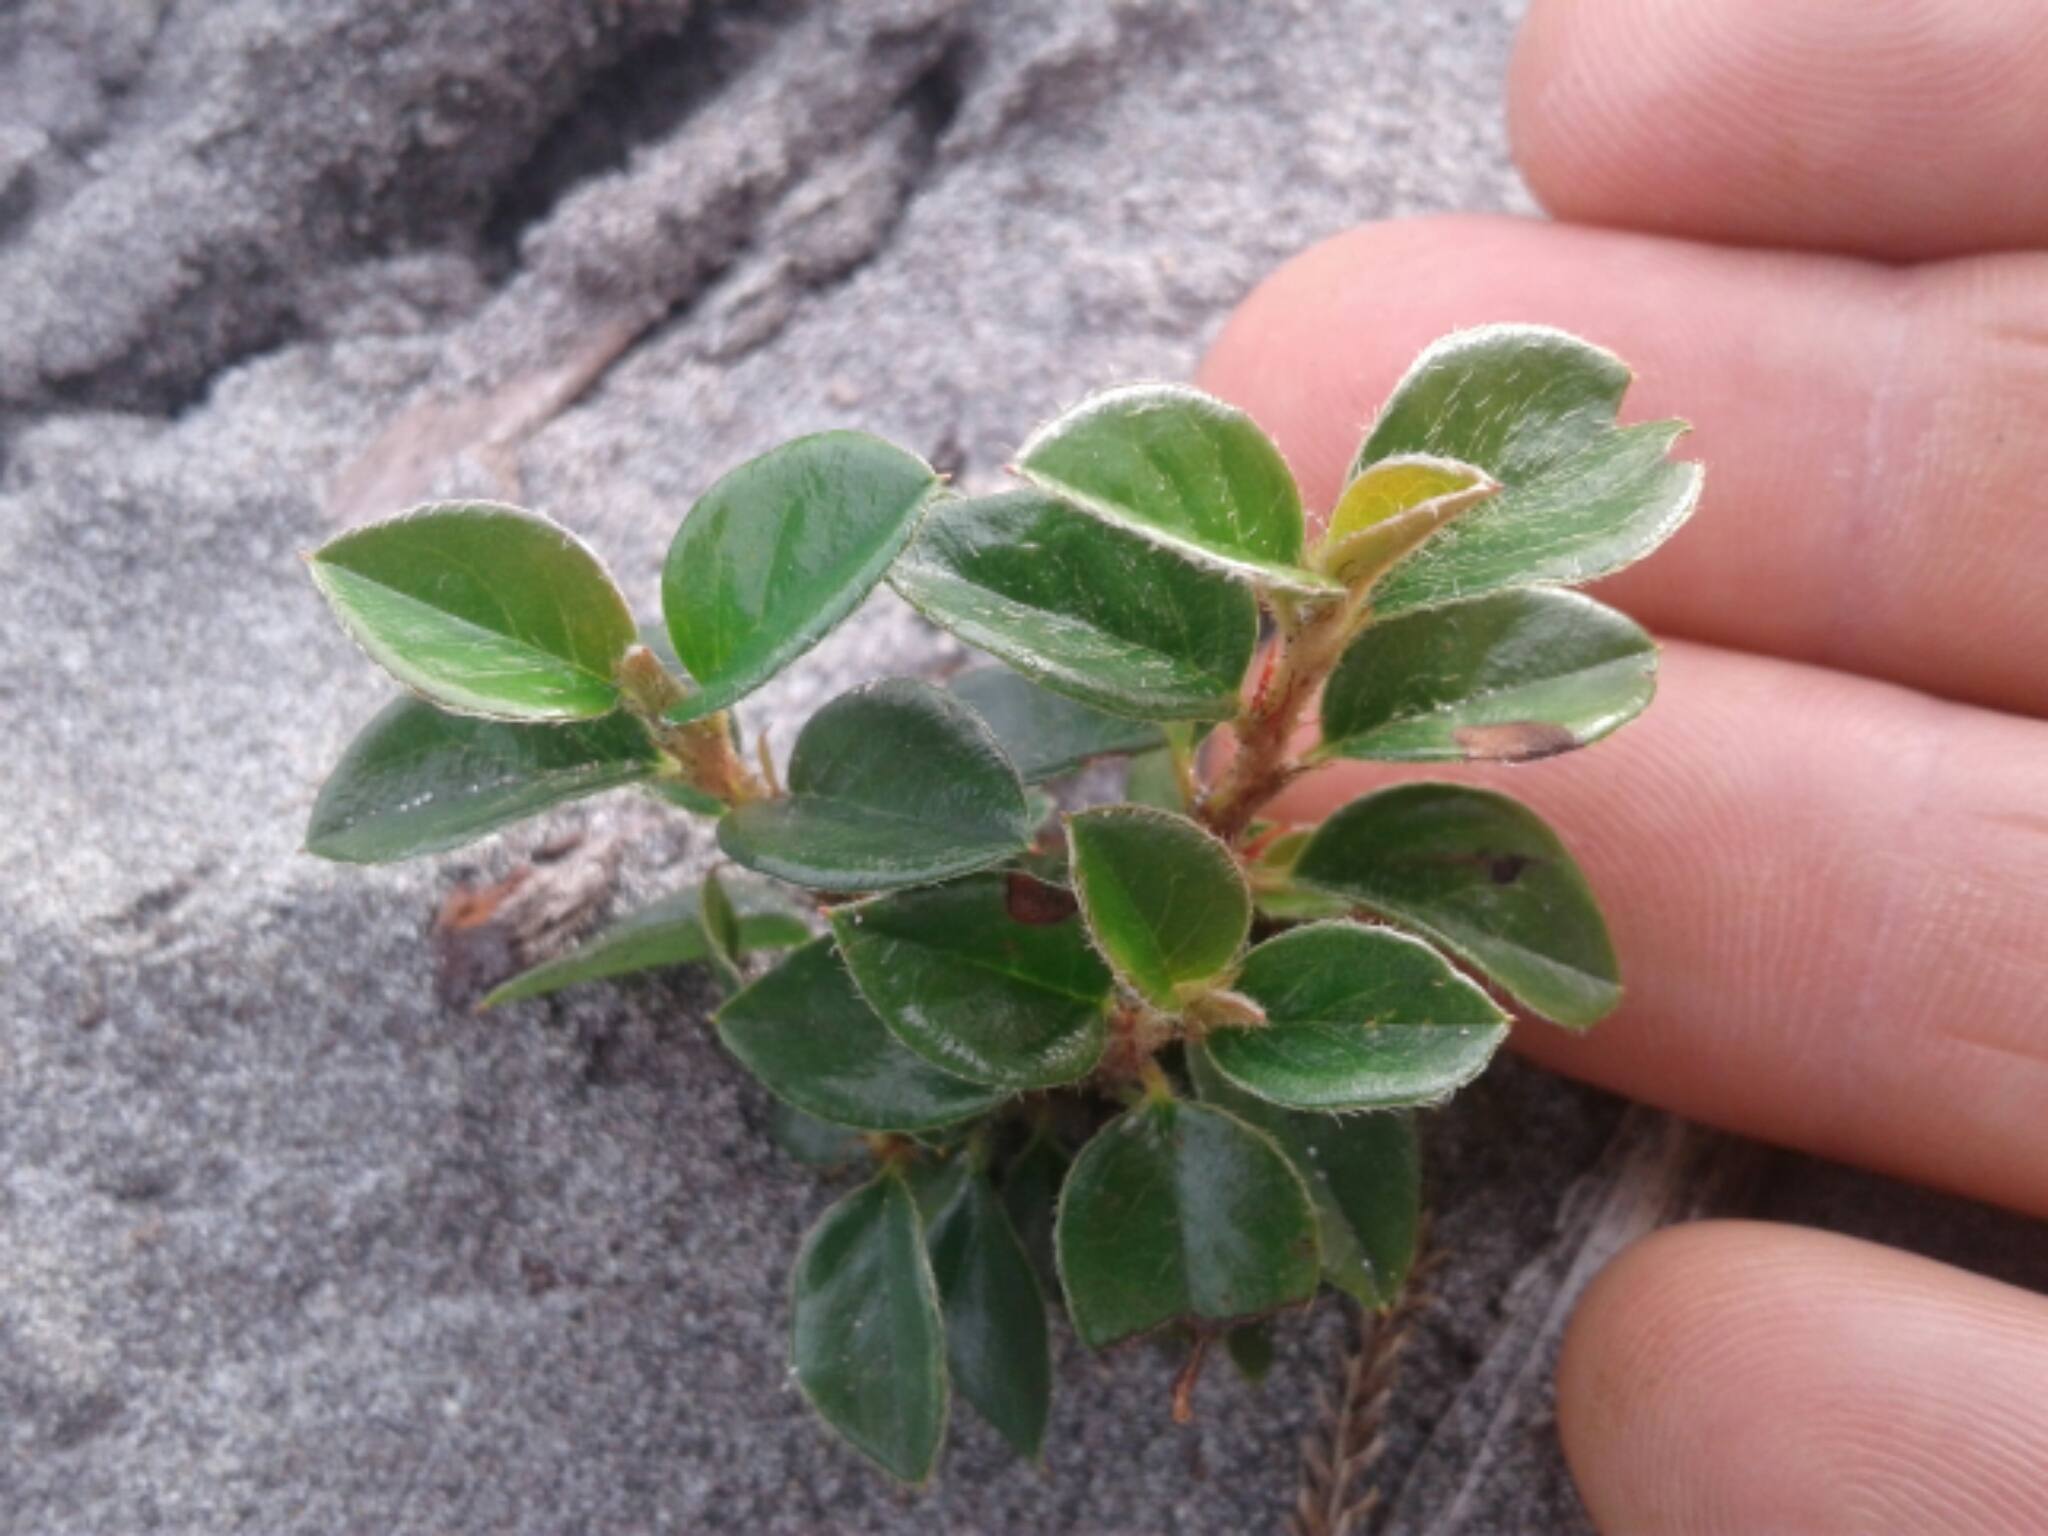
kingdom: Plantae
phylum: Tracheophyta
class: Magnoliopsida
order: Rosales
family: Rosaceae
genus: Cotoneaster
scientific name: Cotoneaster franchetii
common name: Franchet's cotoneaster
